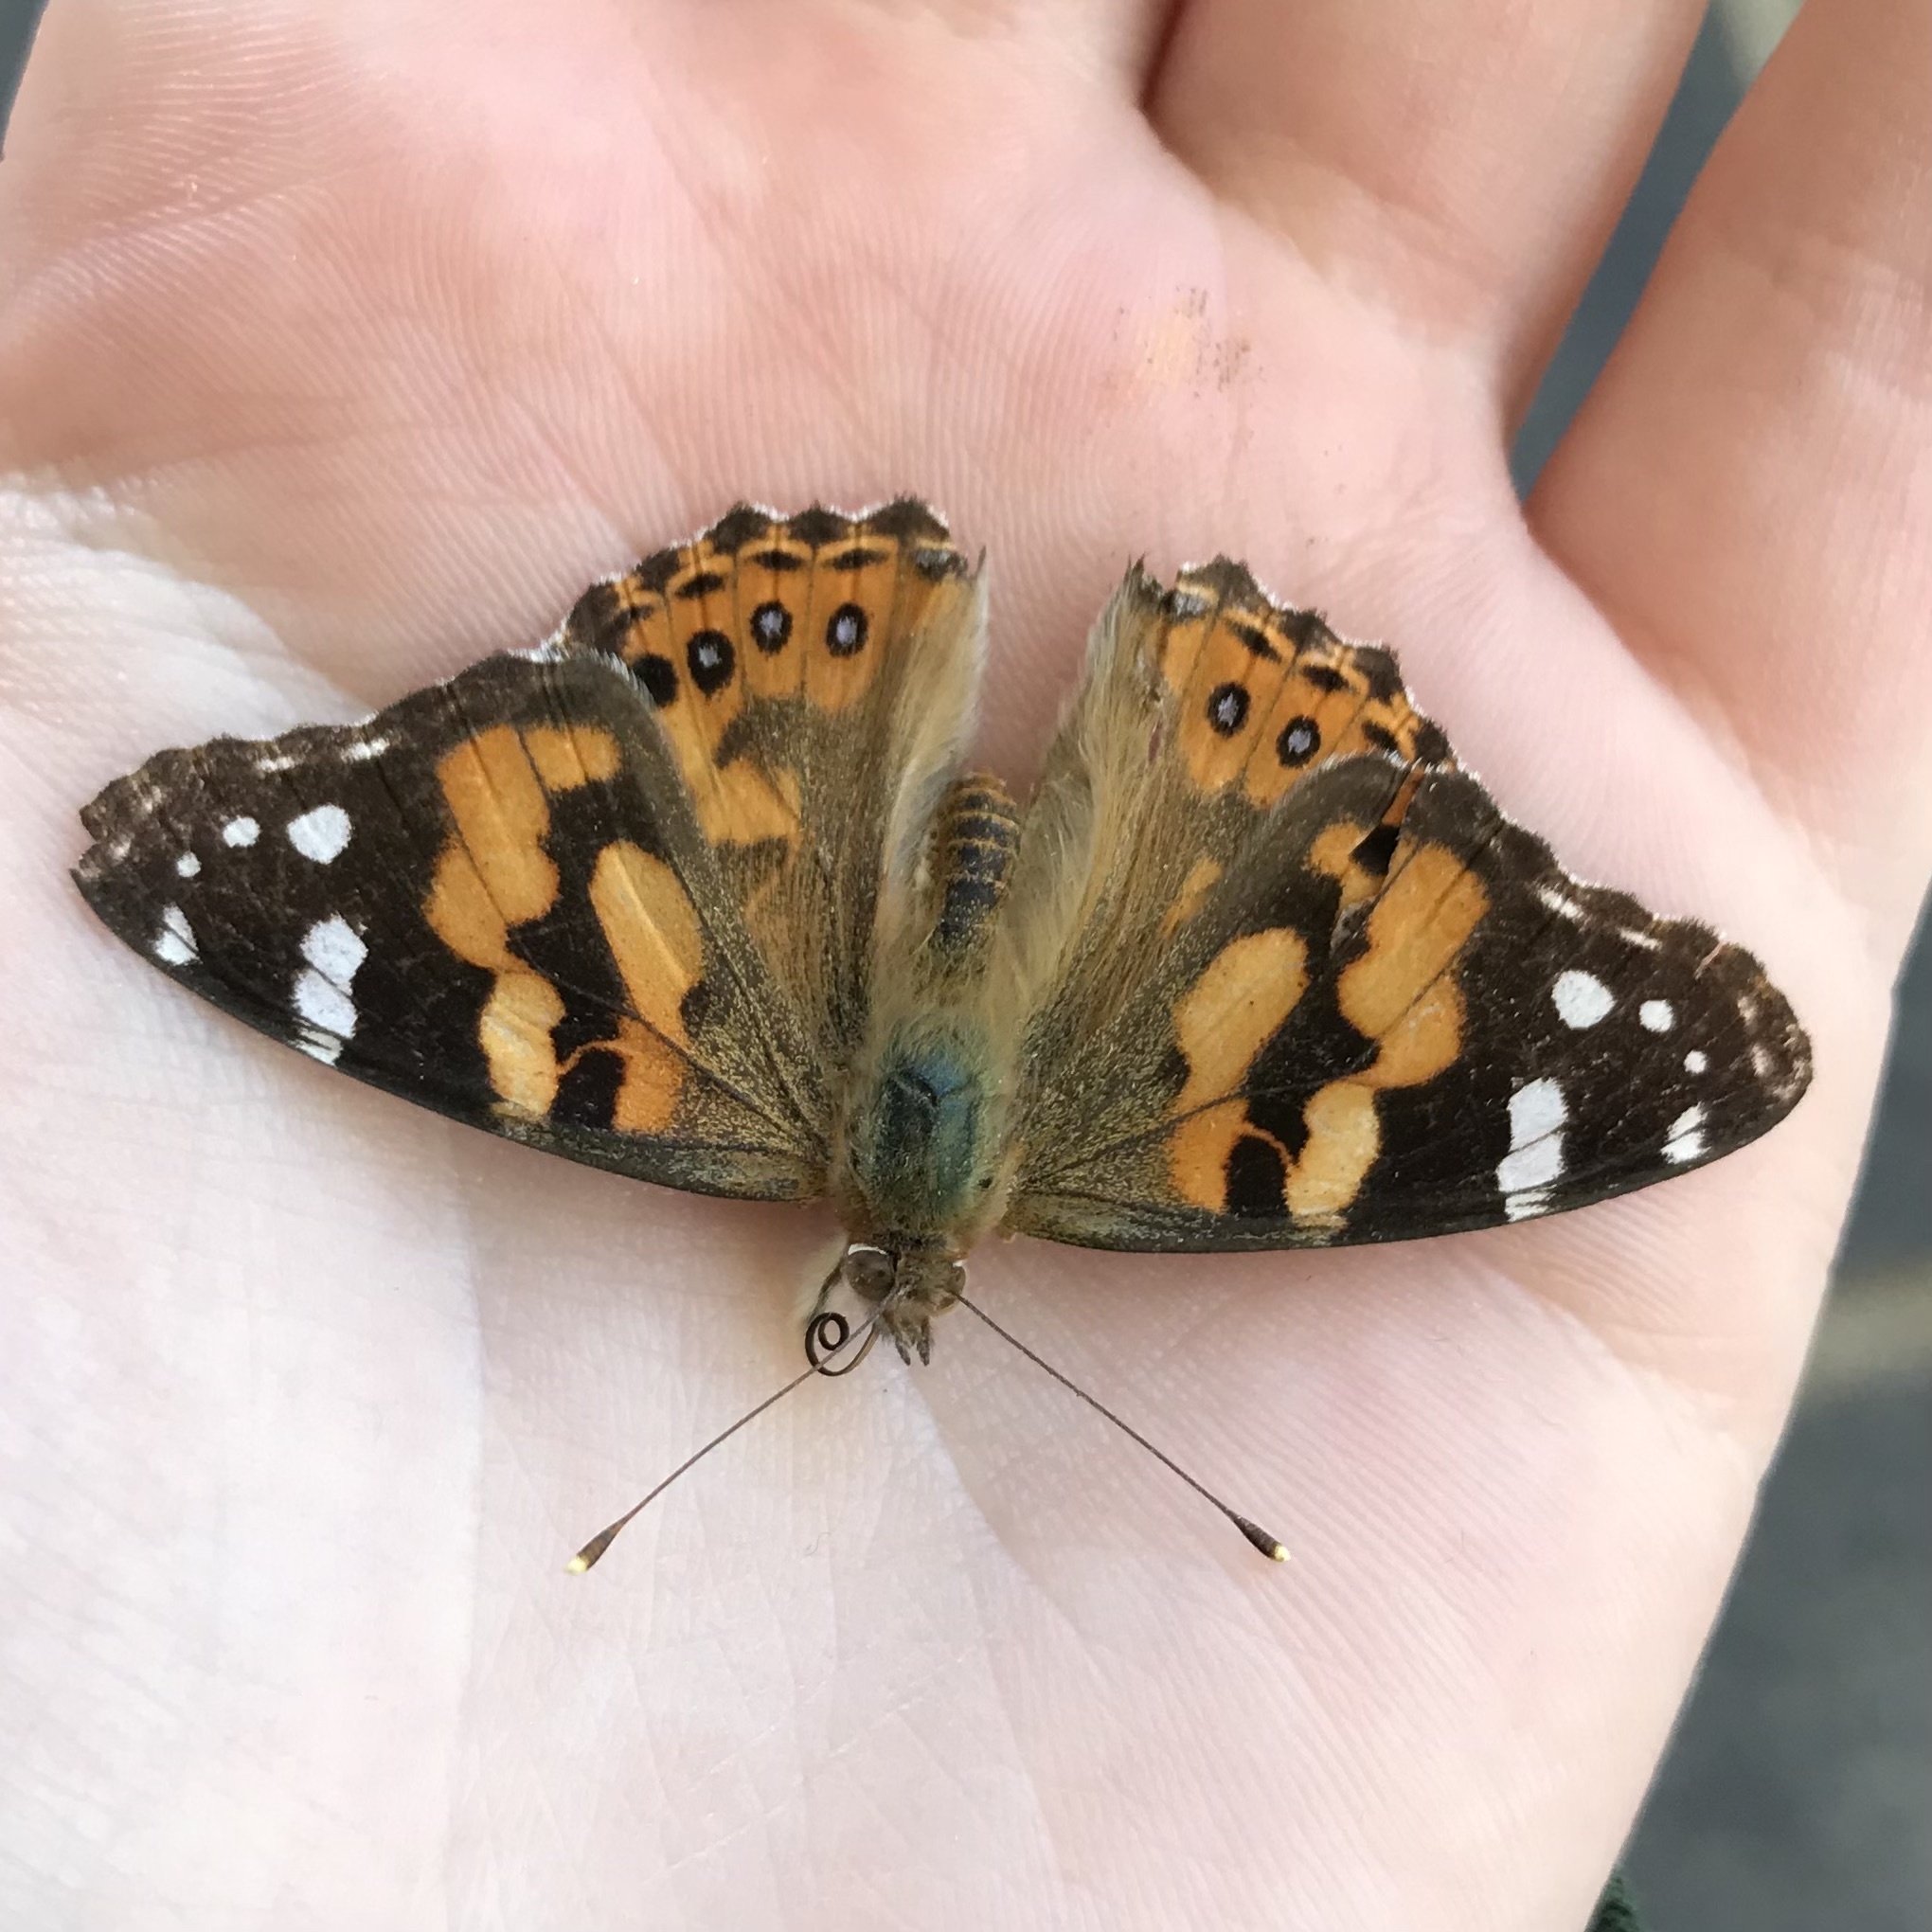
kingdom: Animalia
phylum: Arthropoda
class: Insecta
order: Lepidoptera
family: Nymphalidae
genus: Vanessa
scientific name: Vanessa kershawi
